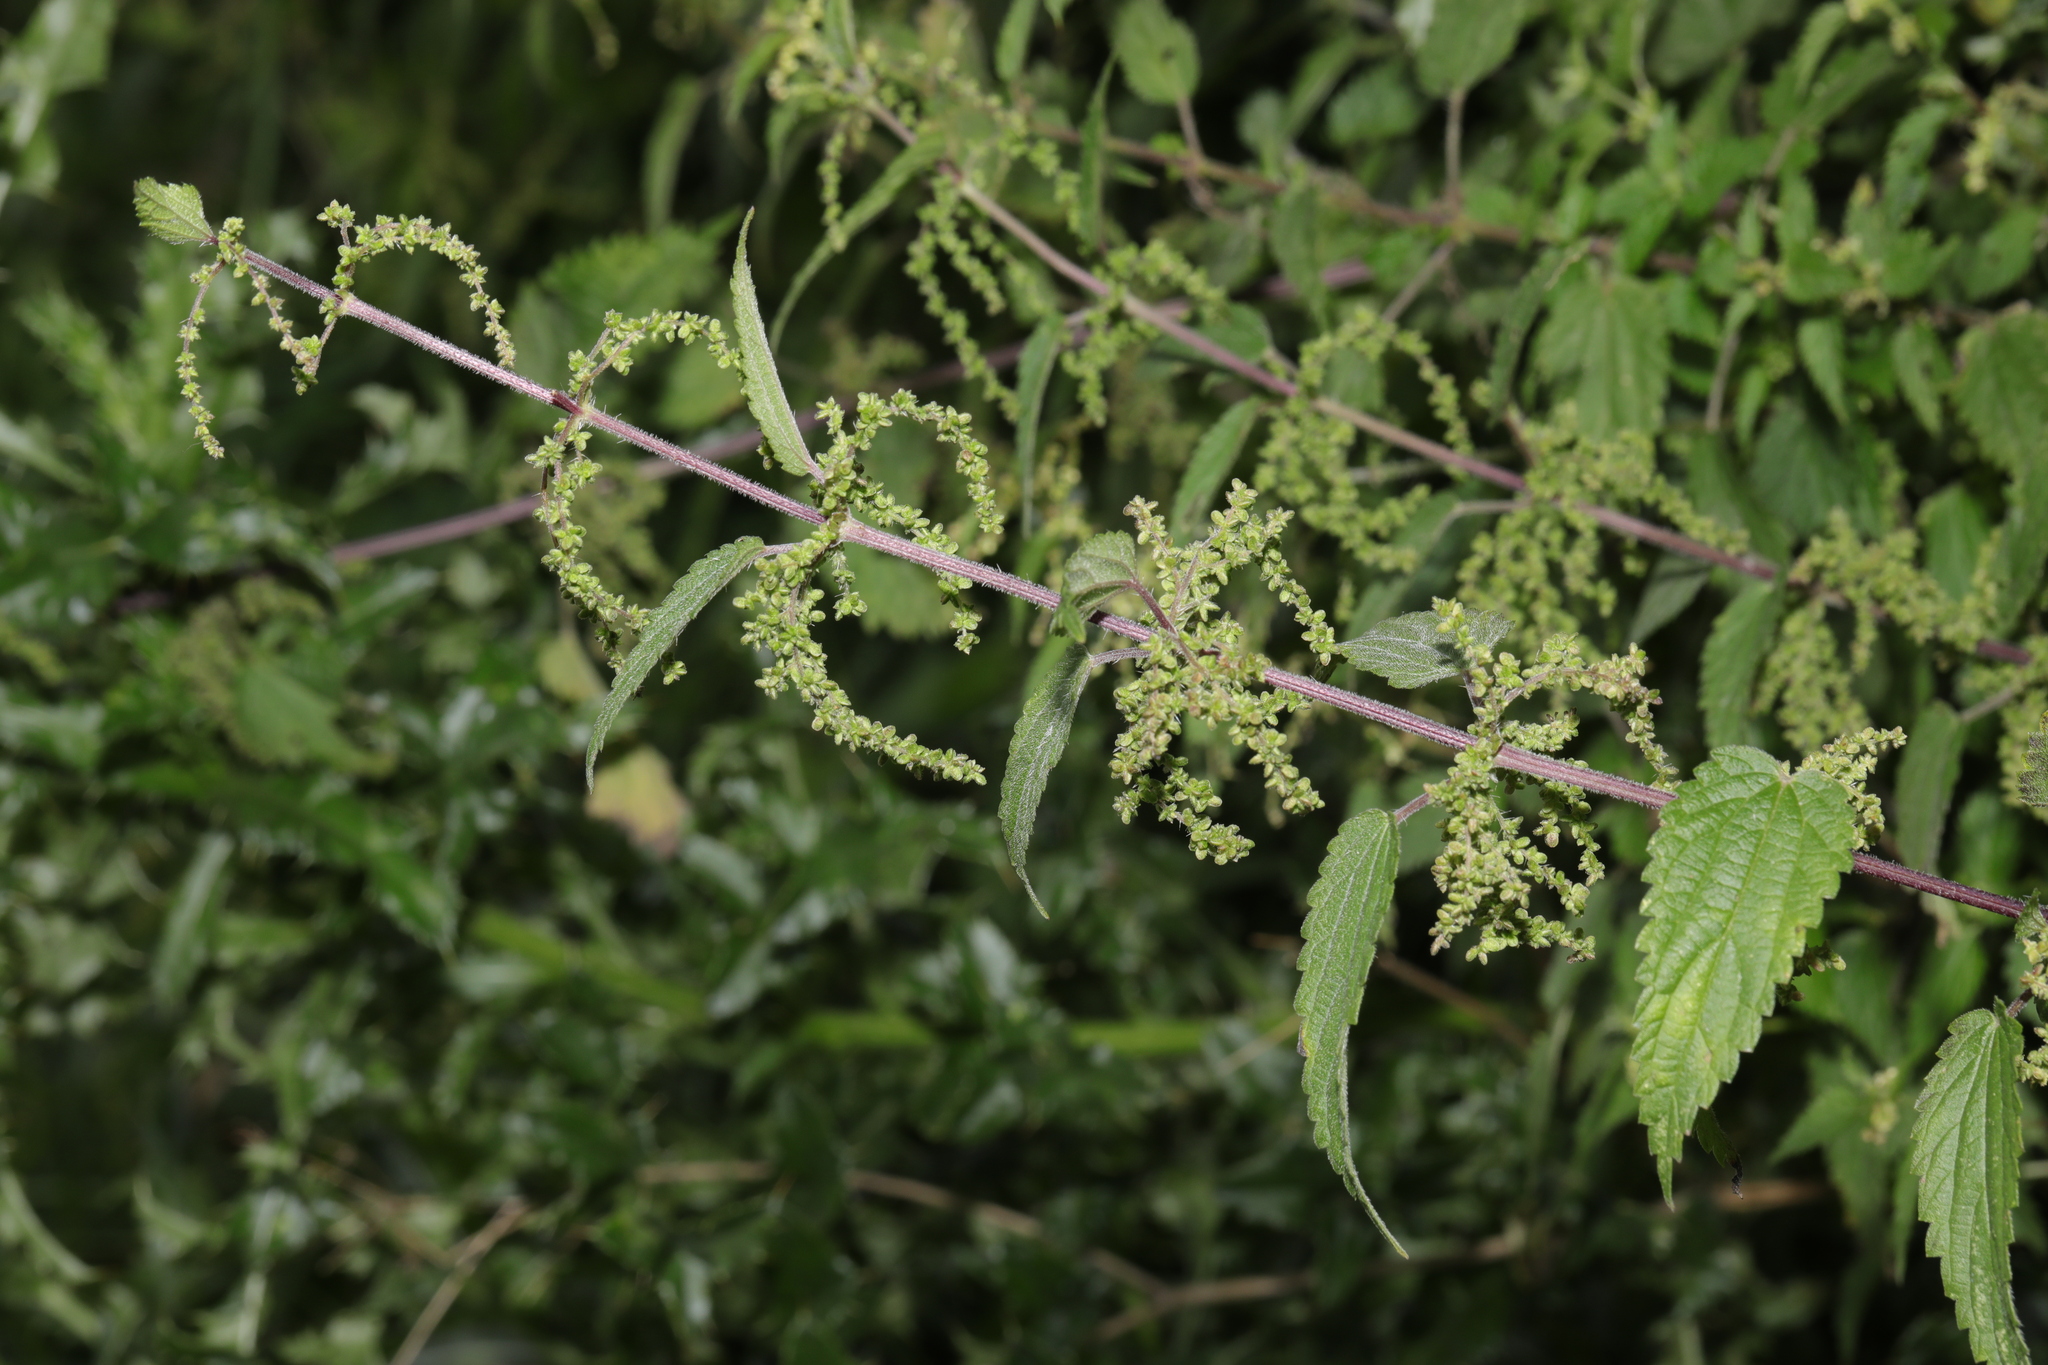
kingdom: Plantae
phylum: Tracheophyta
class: Magnoliopsida
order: Rosales
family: Urticaceae
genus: Urtica
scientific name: Urtica dioica
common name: Common nettle
